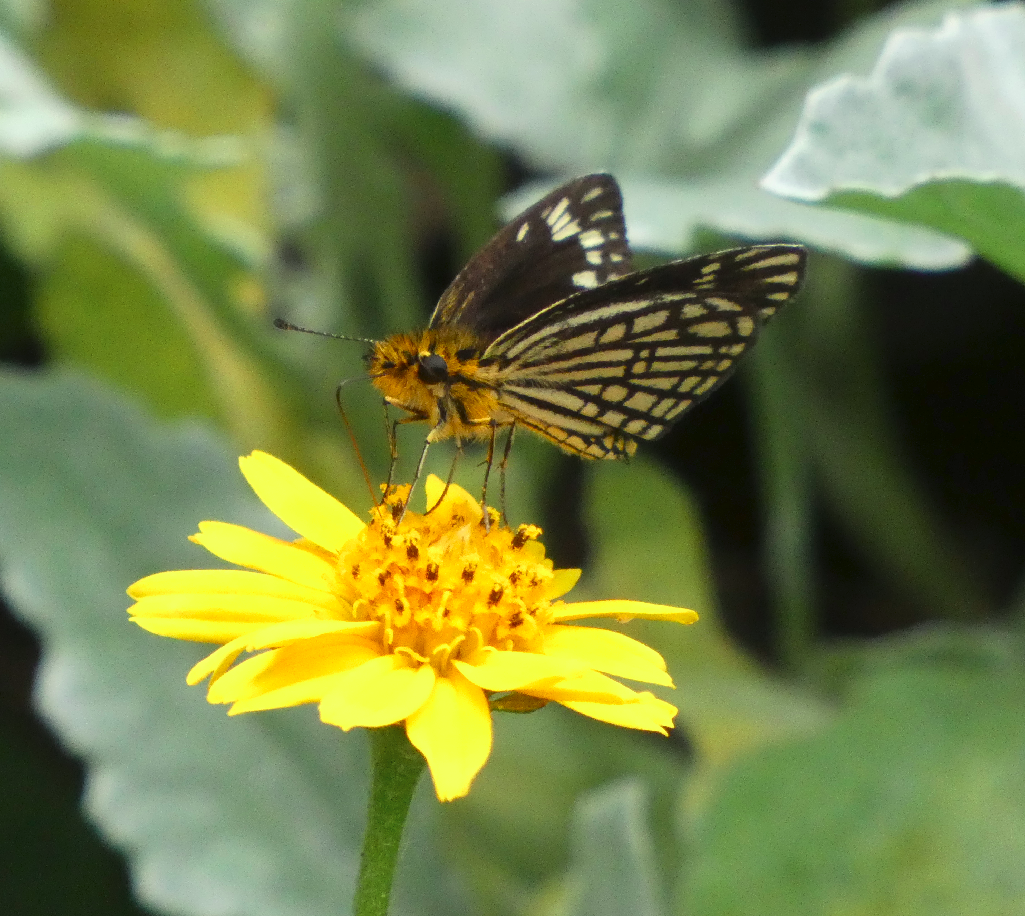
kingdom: Animalia
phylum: Arthropoda
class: Insecta
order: Lepidoptera
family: Hesperiidae
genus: Willema
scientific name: Willema willemi
